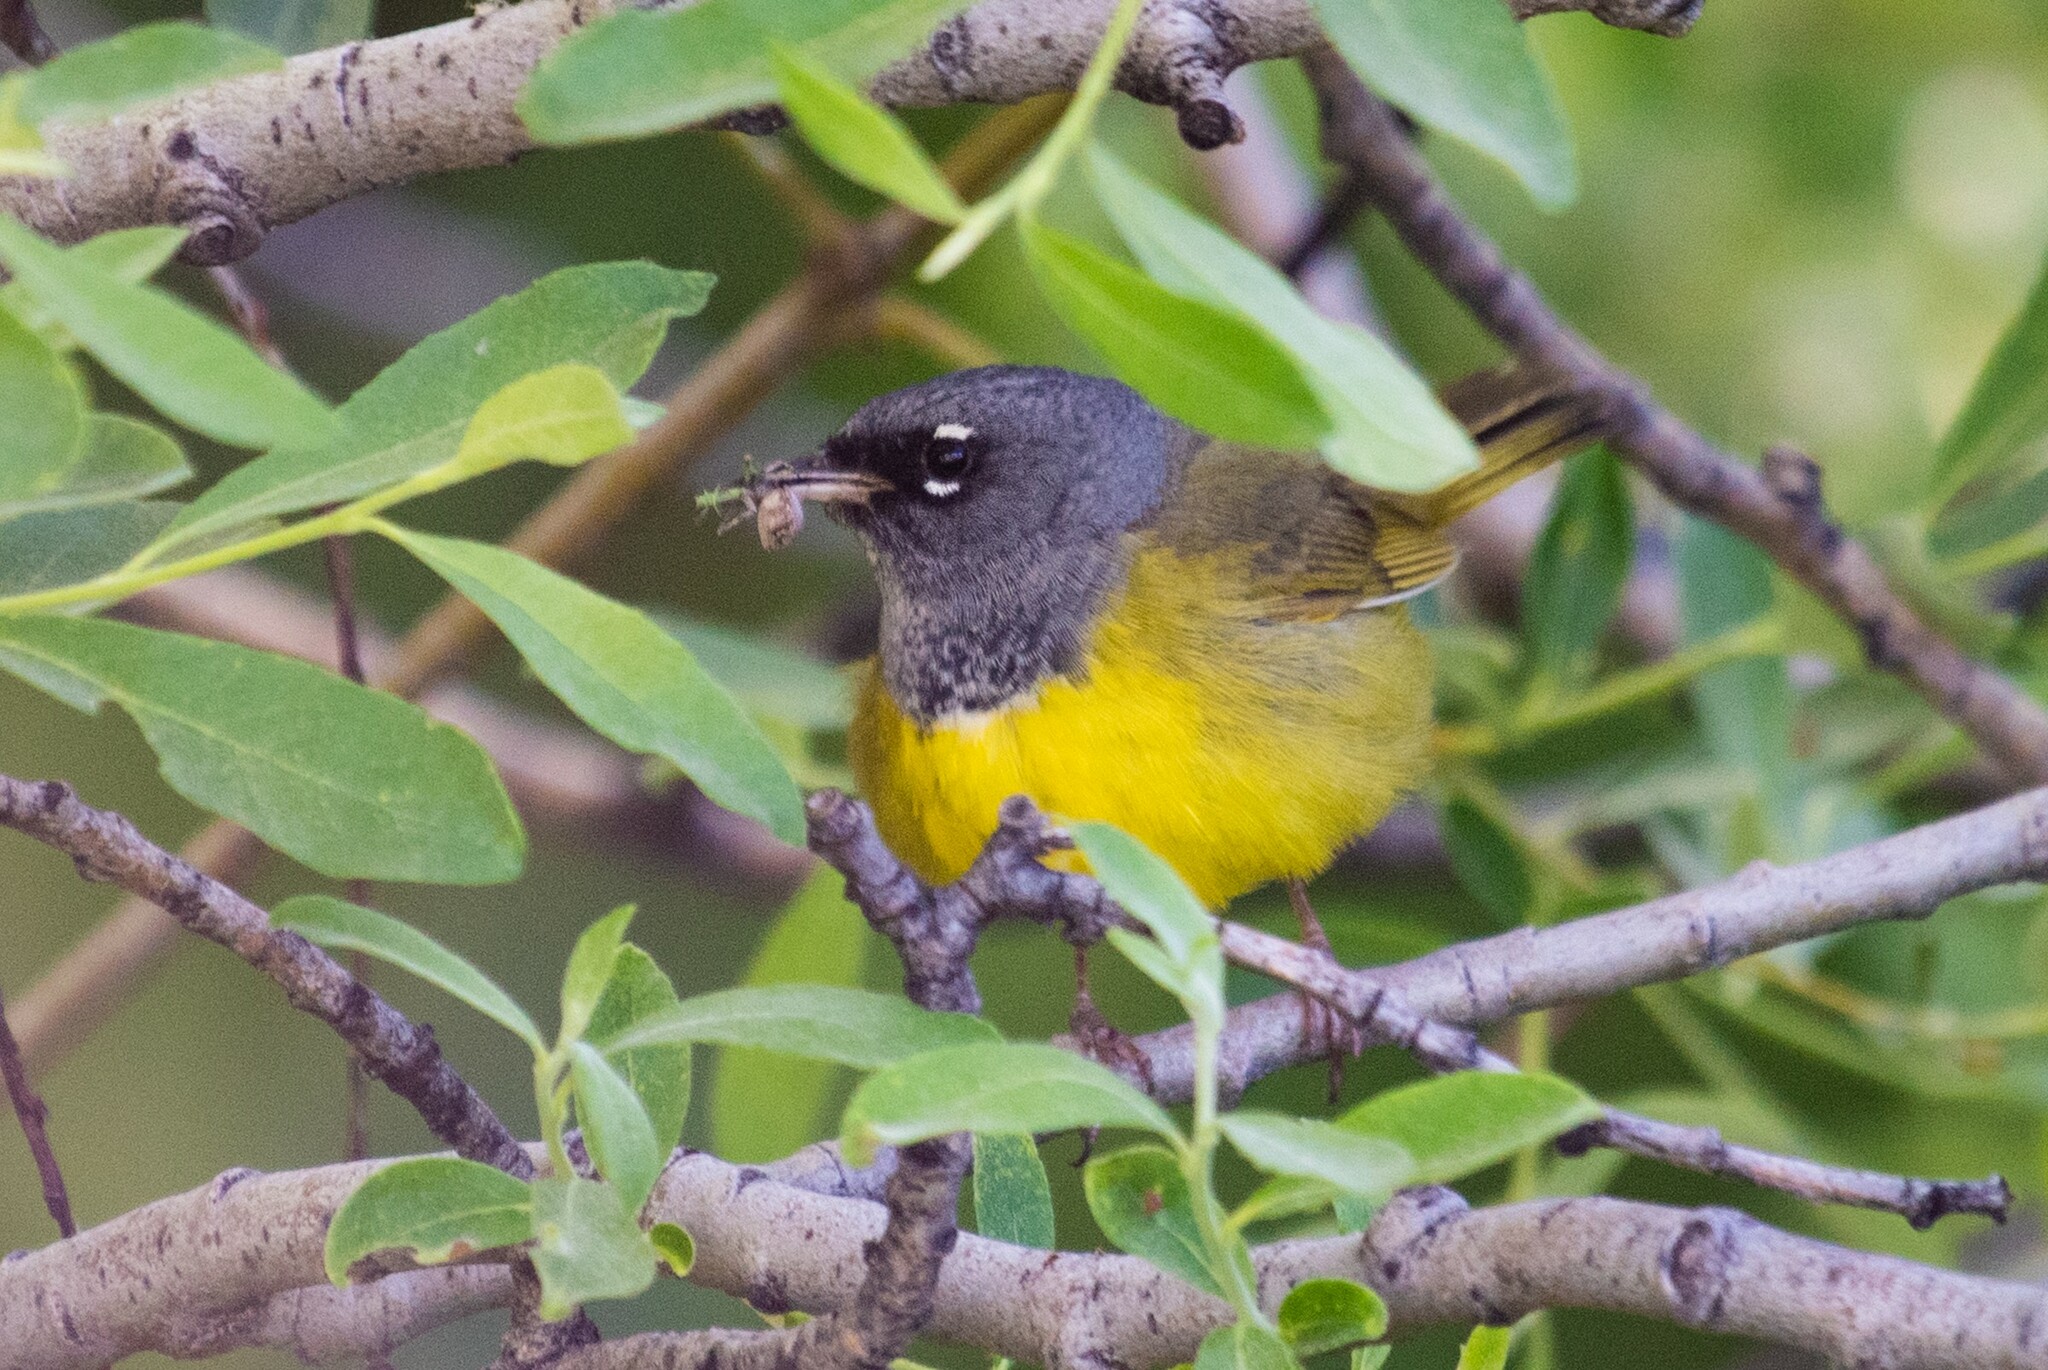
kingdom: Animalia
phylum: Chordata
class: Aves
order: Passeriformes
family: Parulidae
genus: Geothlypis
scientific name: Geothlypis tolmiei
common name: Macgillivray's warbler
